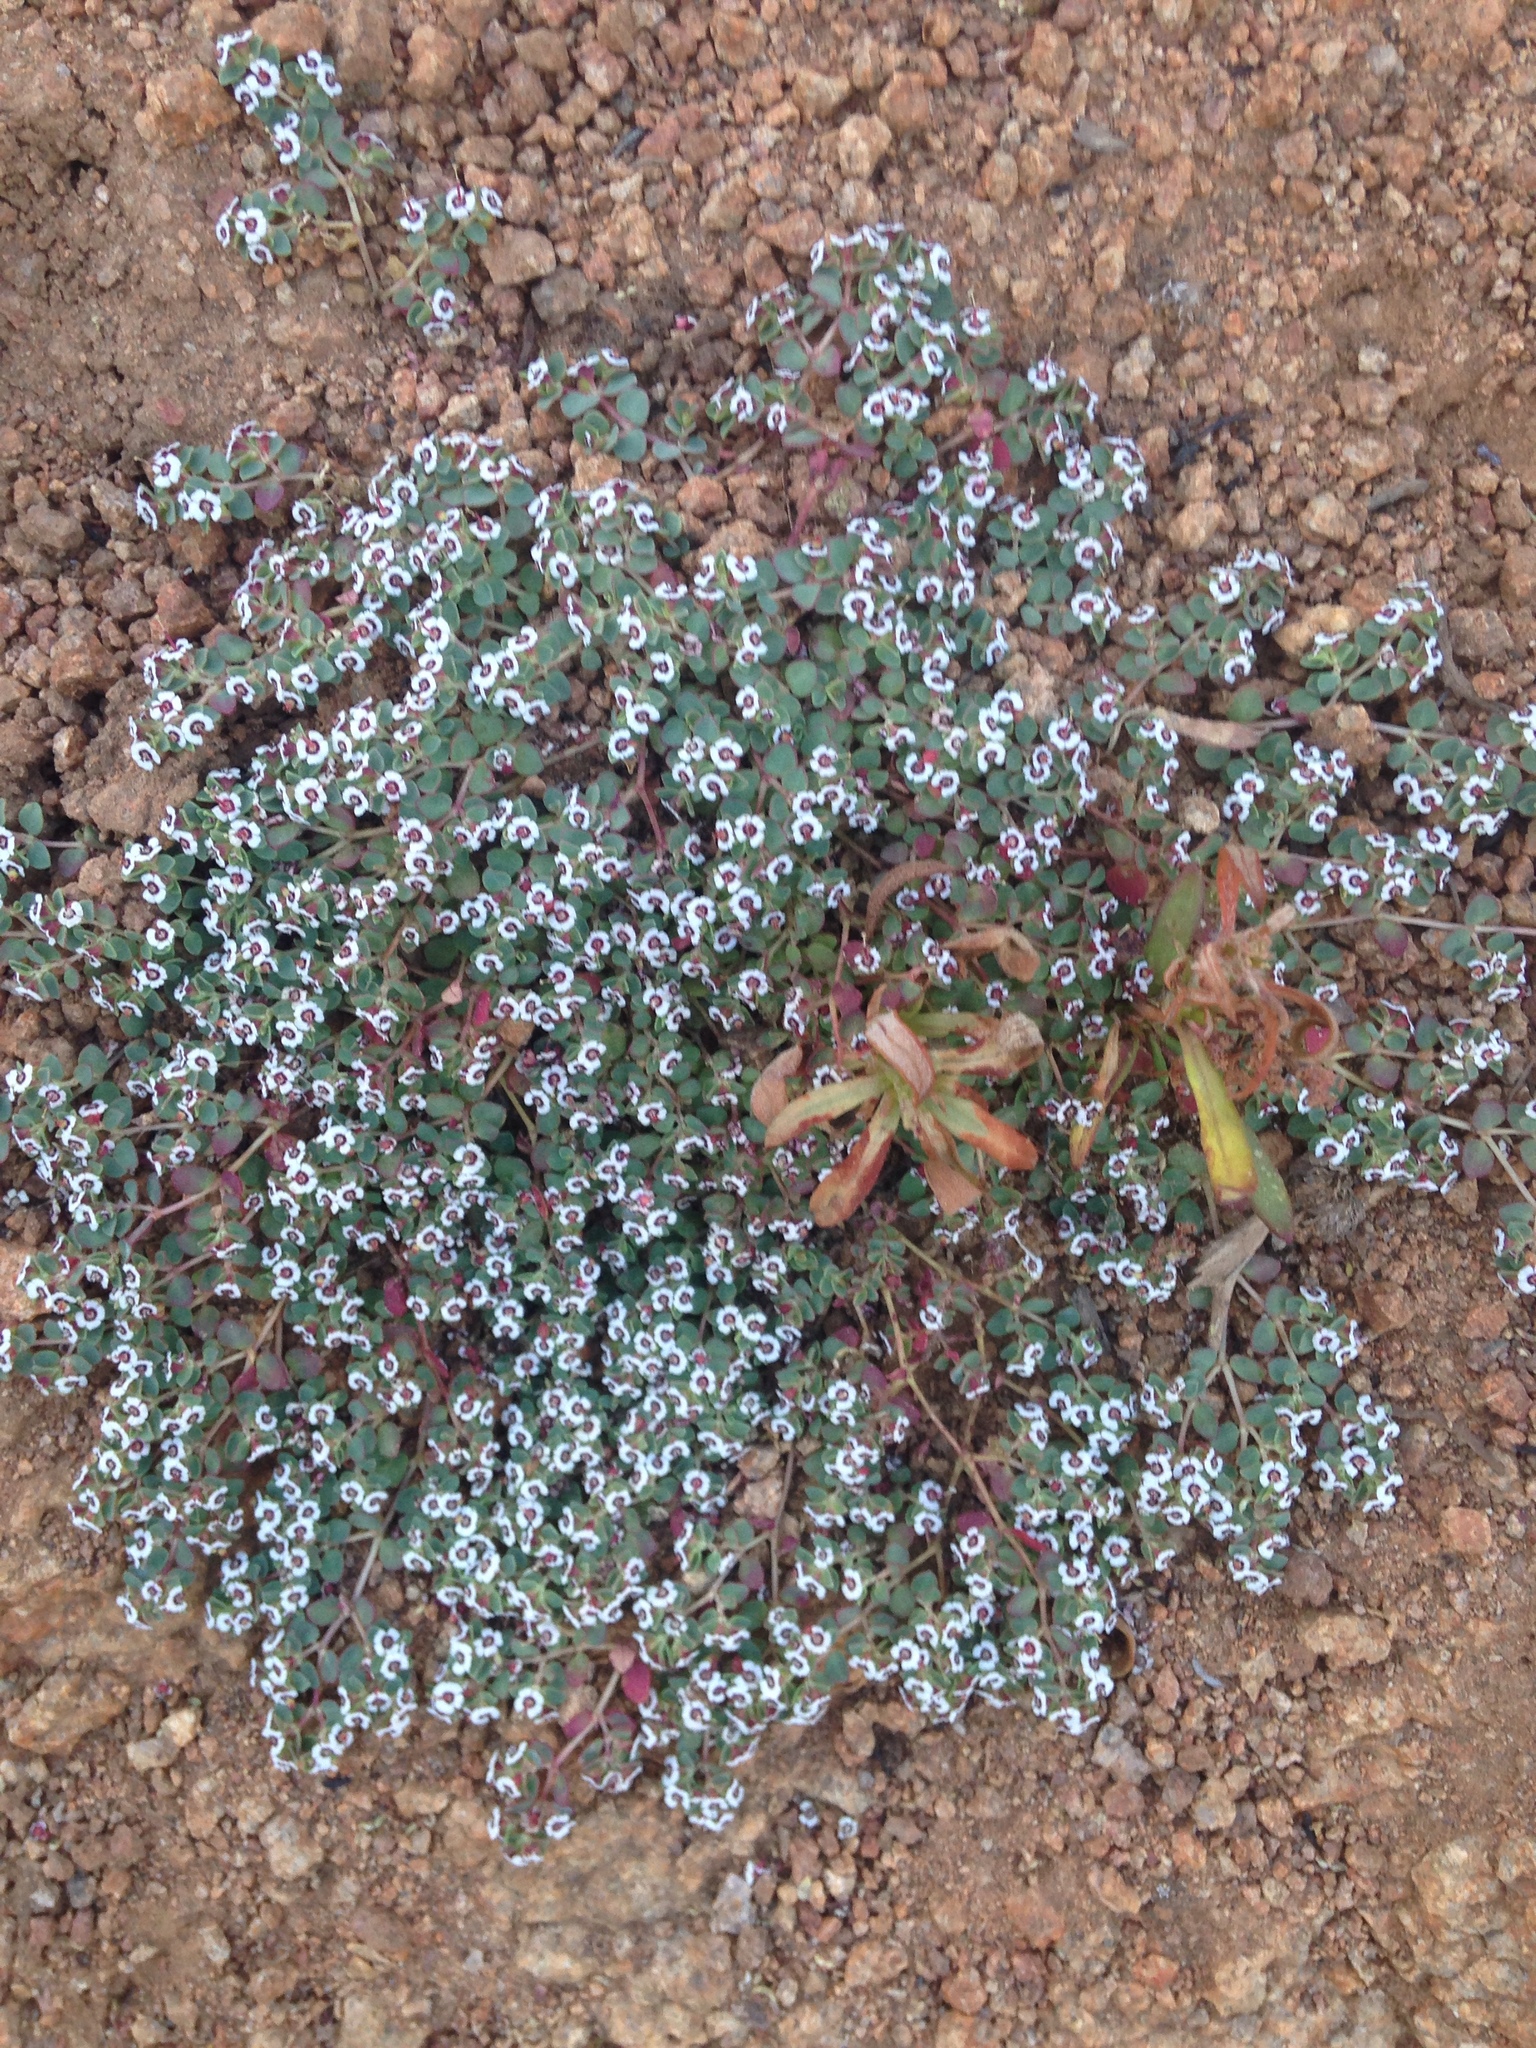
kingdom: Plantae
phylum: Tracheophyta
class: Magnoliopsida
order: Malpighiales
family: Euphorbiaceae
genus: Euphorbia
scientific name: Euphorbia polycarpa
